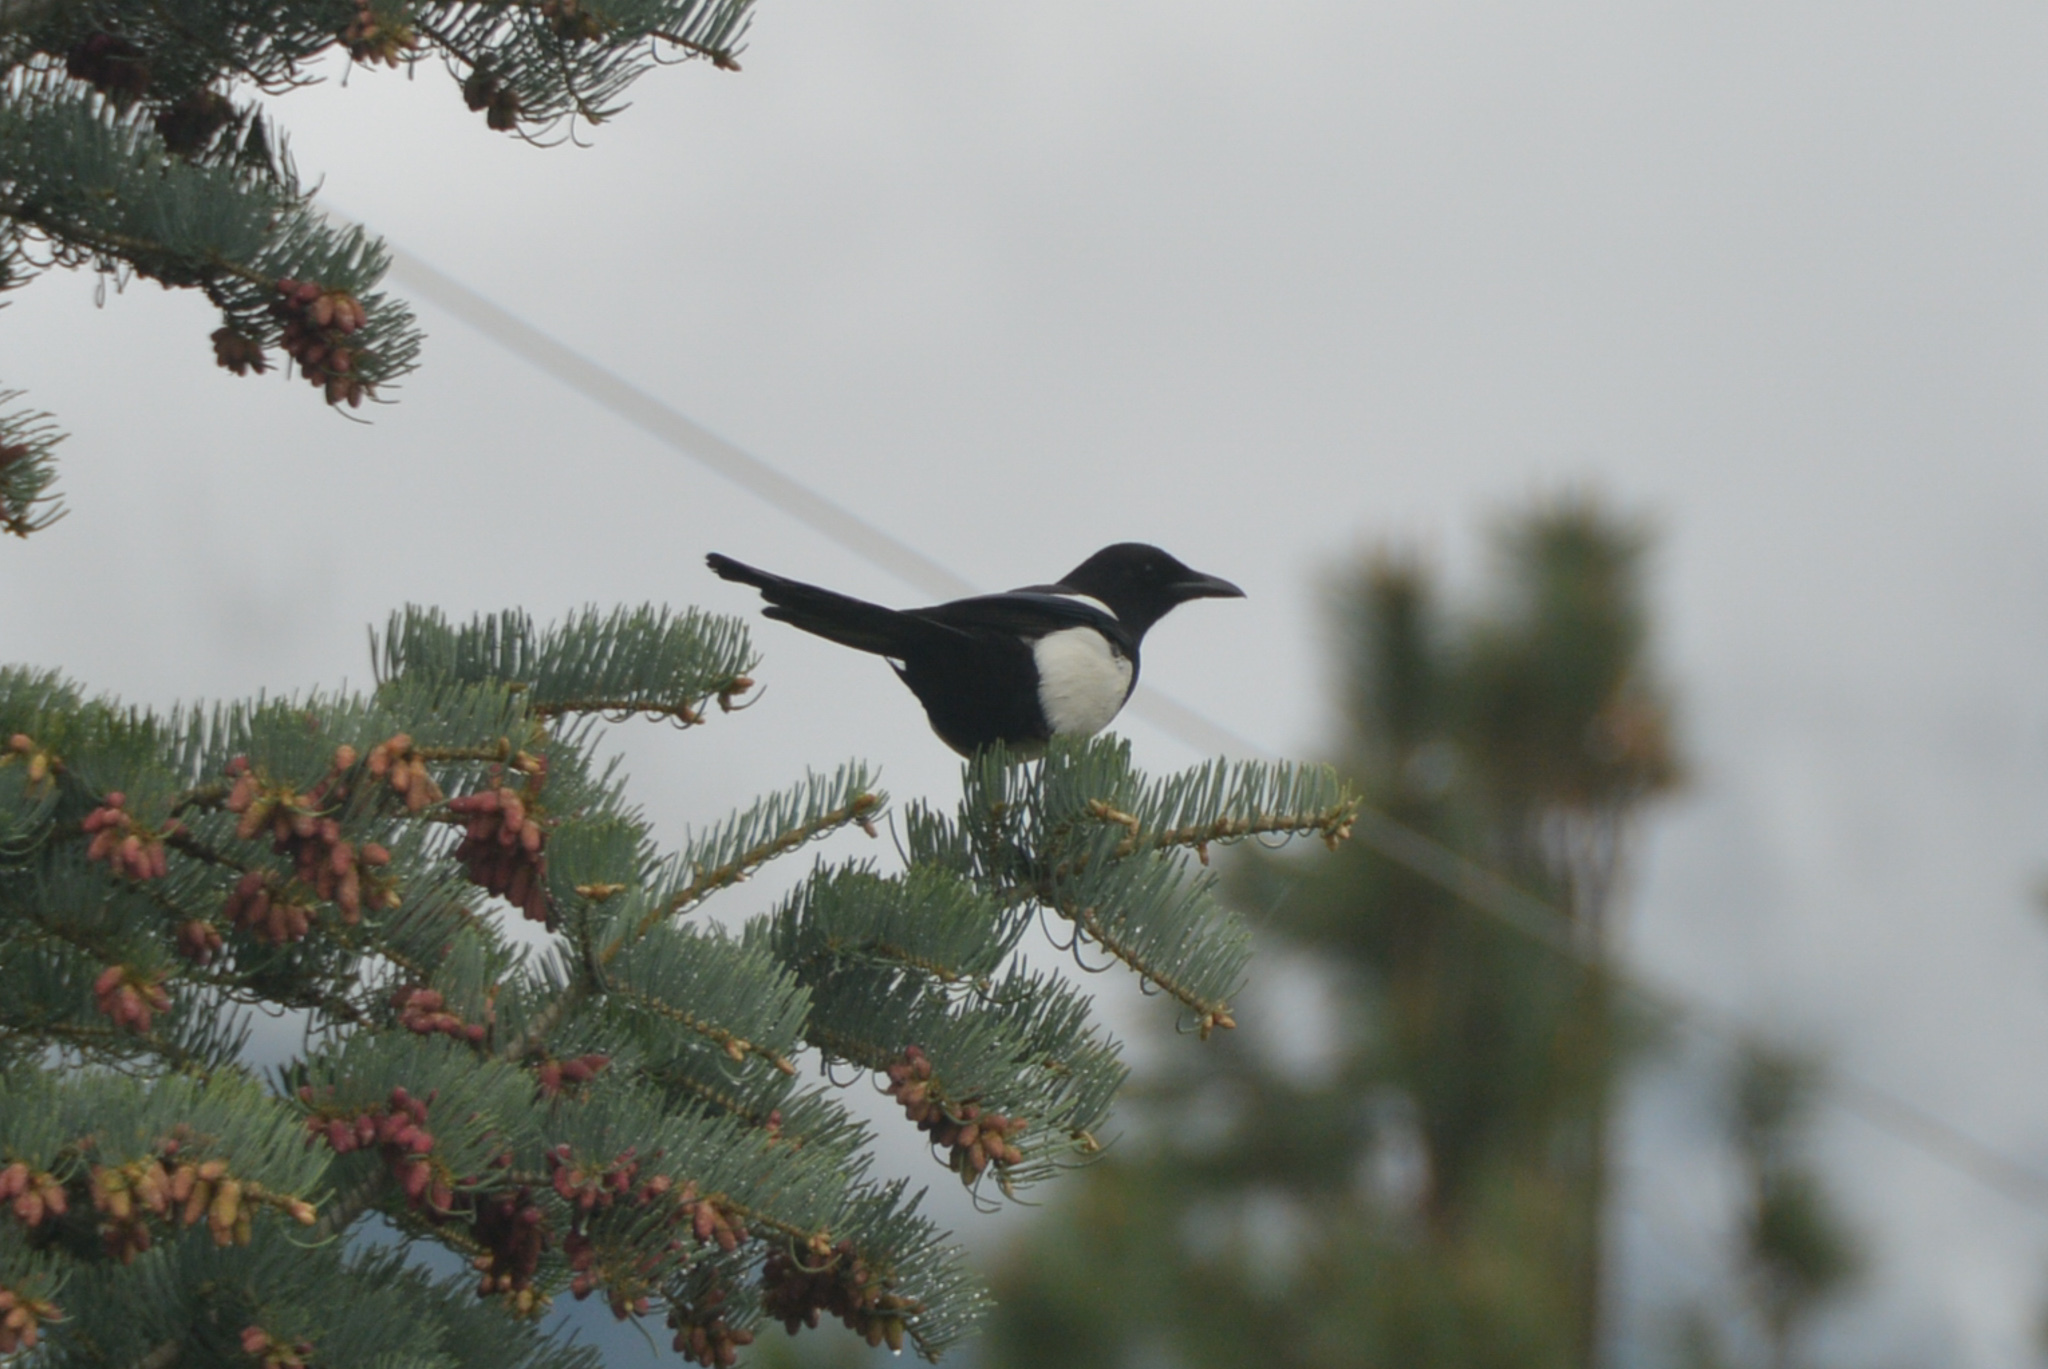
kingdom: Animalia
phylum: Chordata
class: Aves
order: Passeriformes
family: Corvidae
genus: Pica
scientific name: Pica hudsonia
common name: Black-billed magpie
